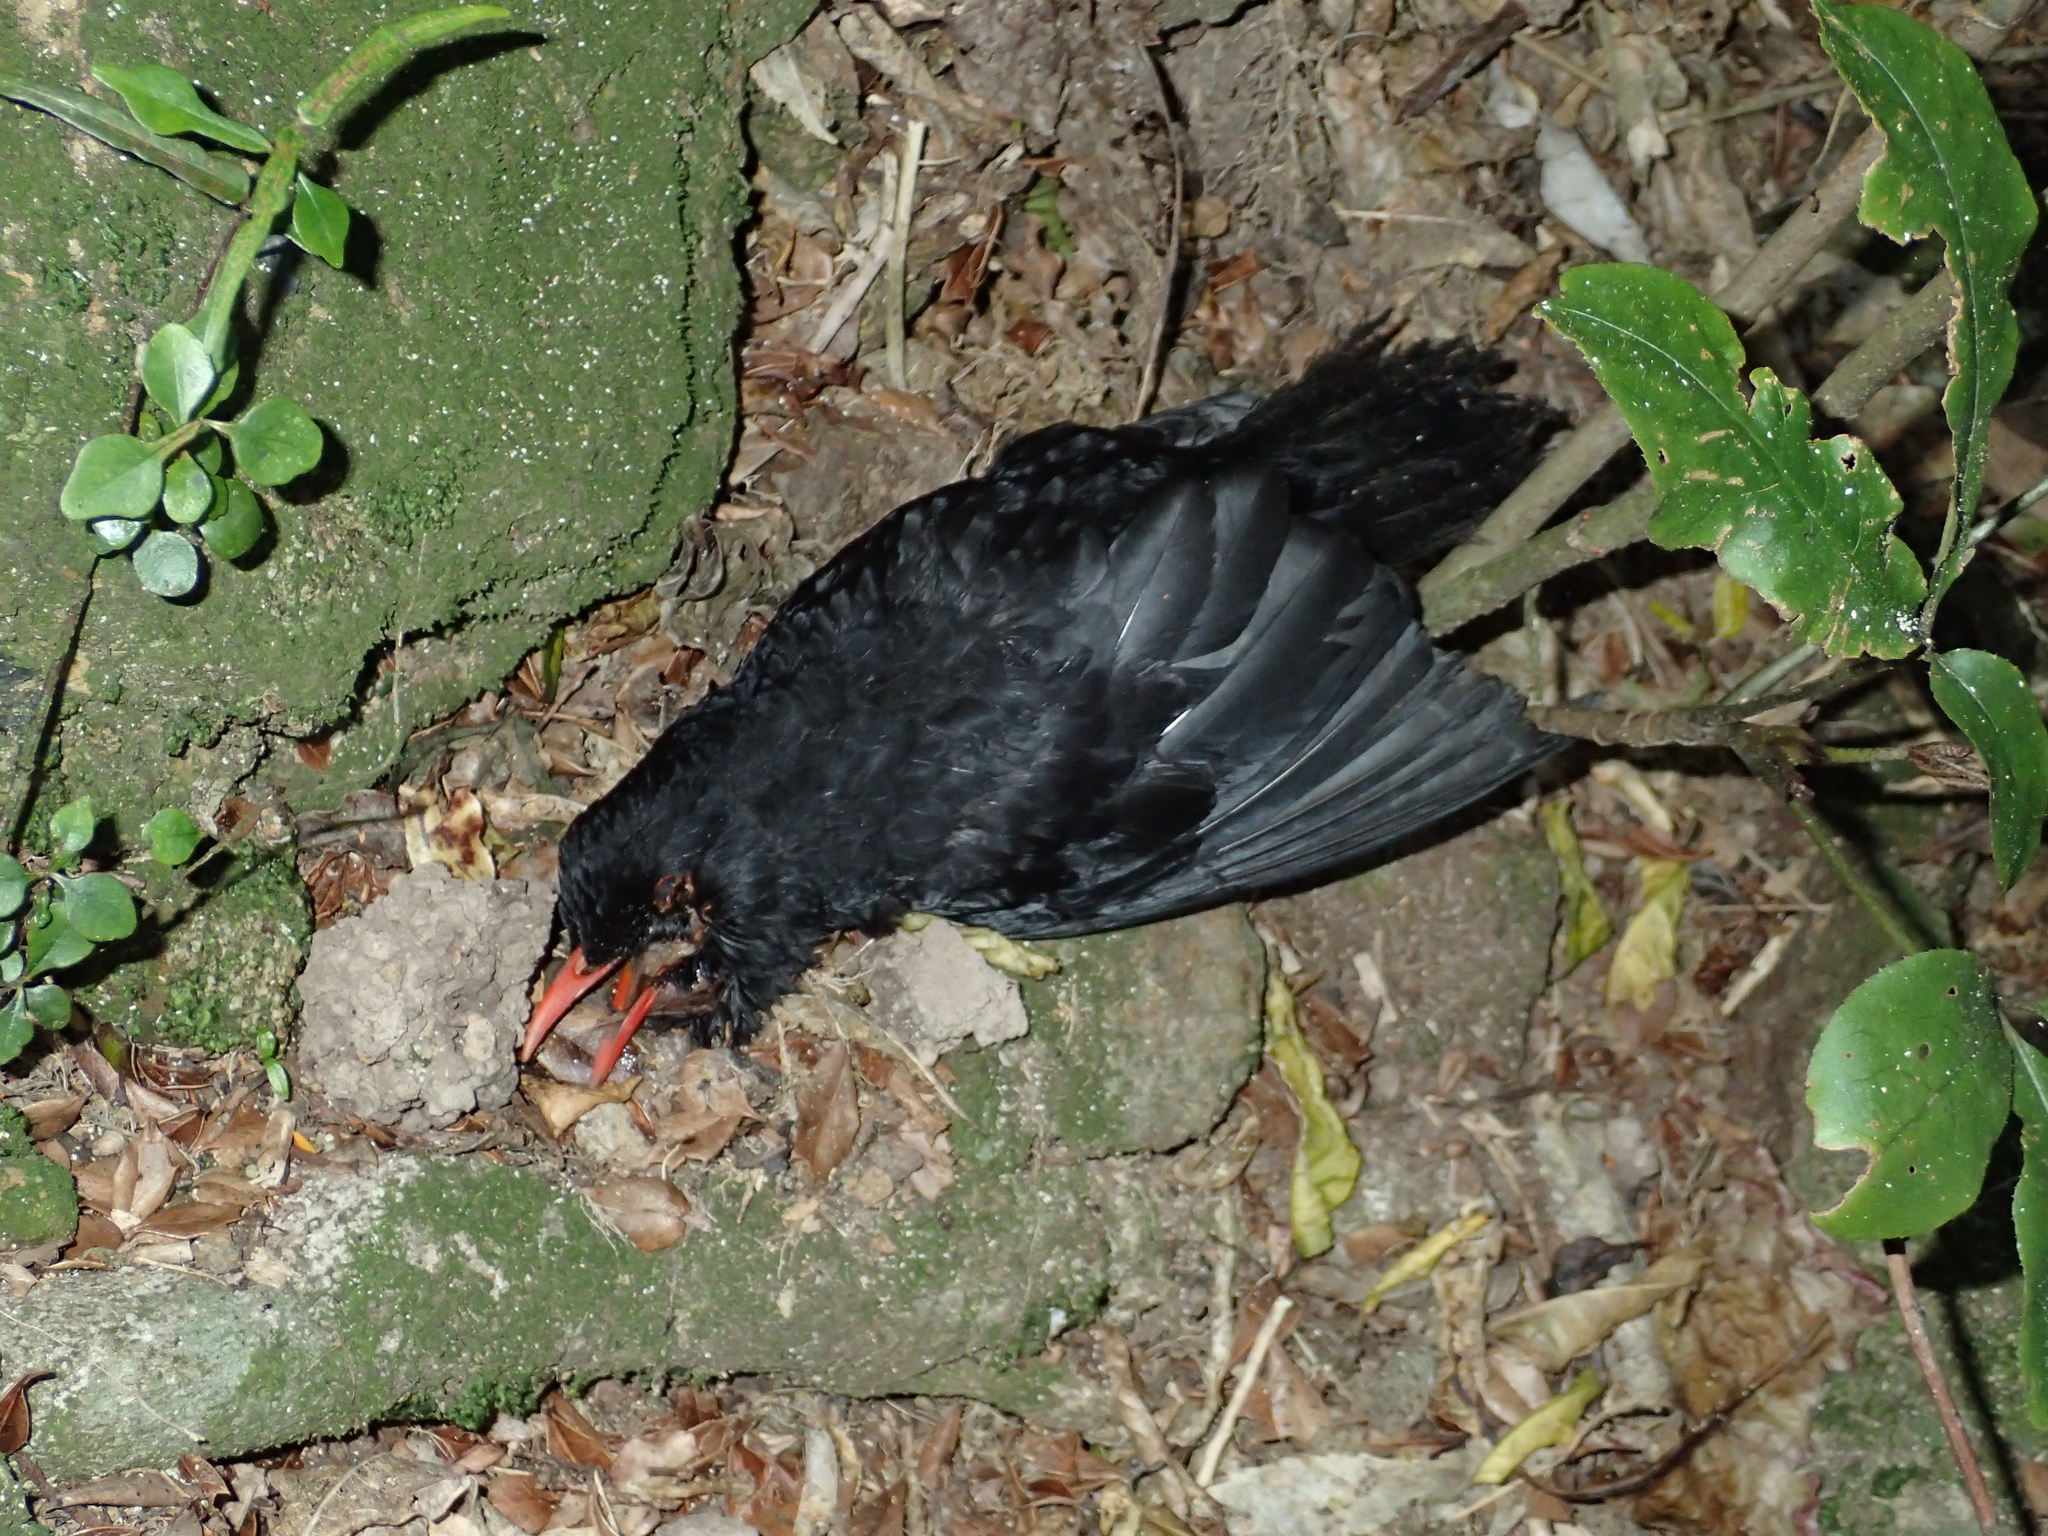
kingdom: Animalia
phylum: Chordata
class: Aves
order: Passeriformes
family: Turdidae
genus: Turdus
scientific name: Turdus merula
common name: Common blackbird
